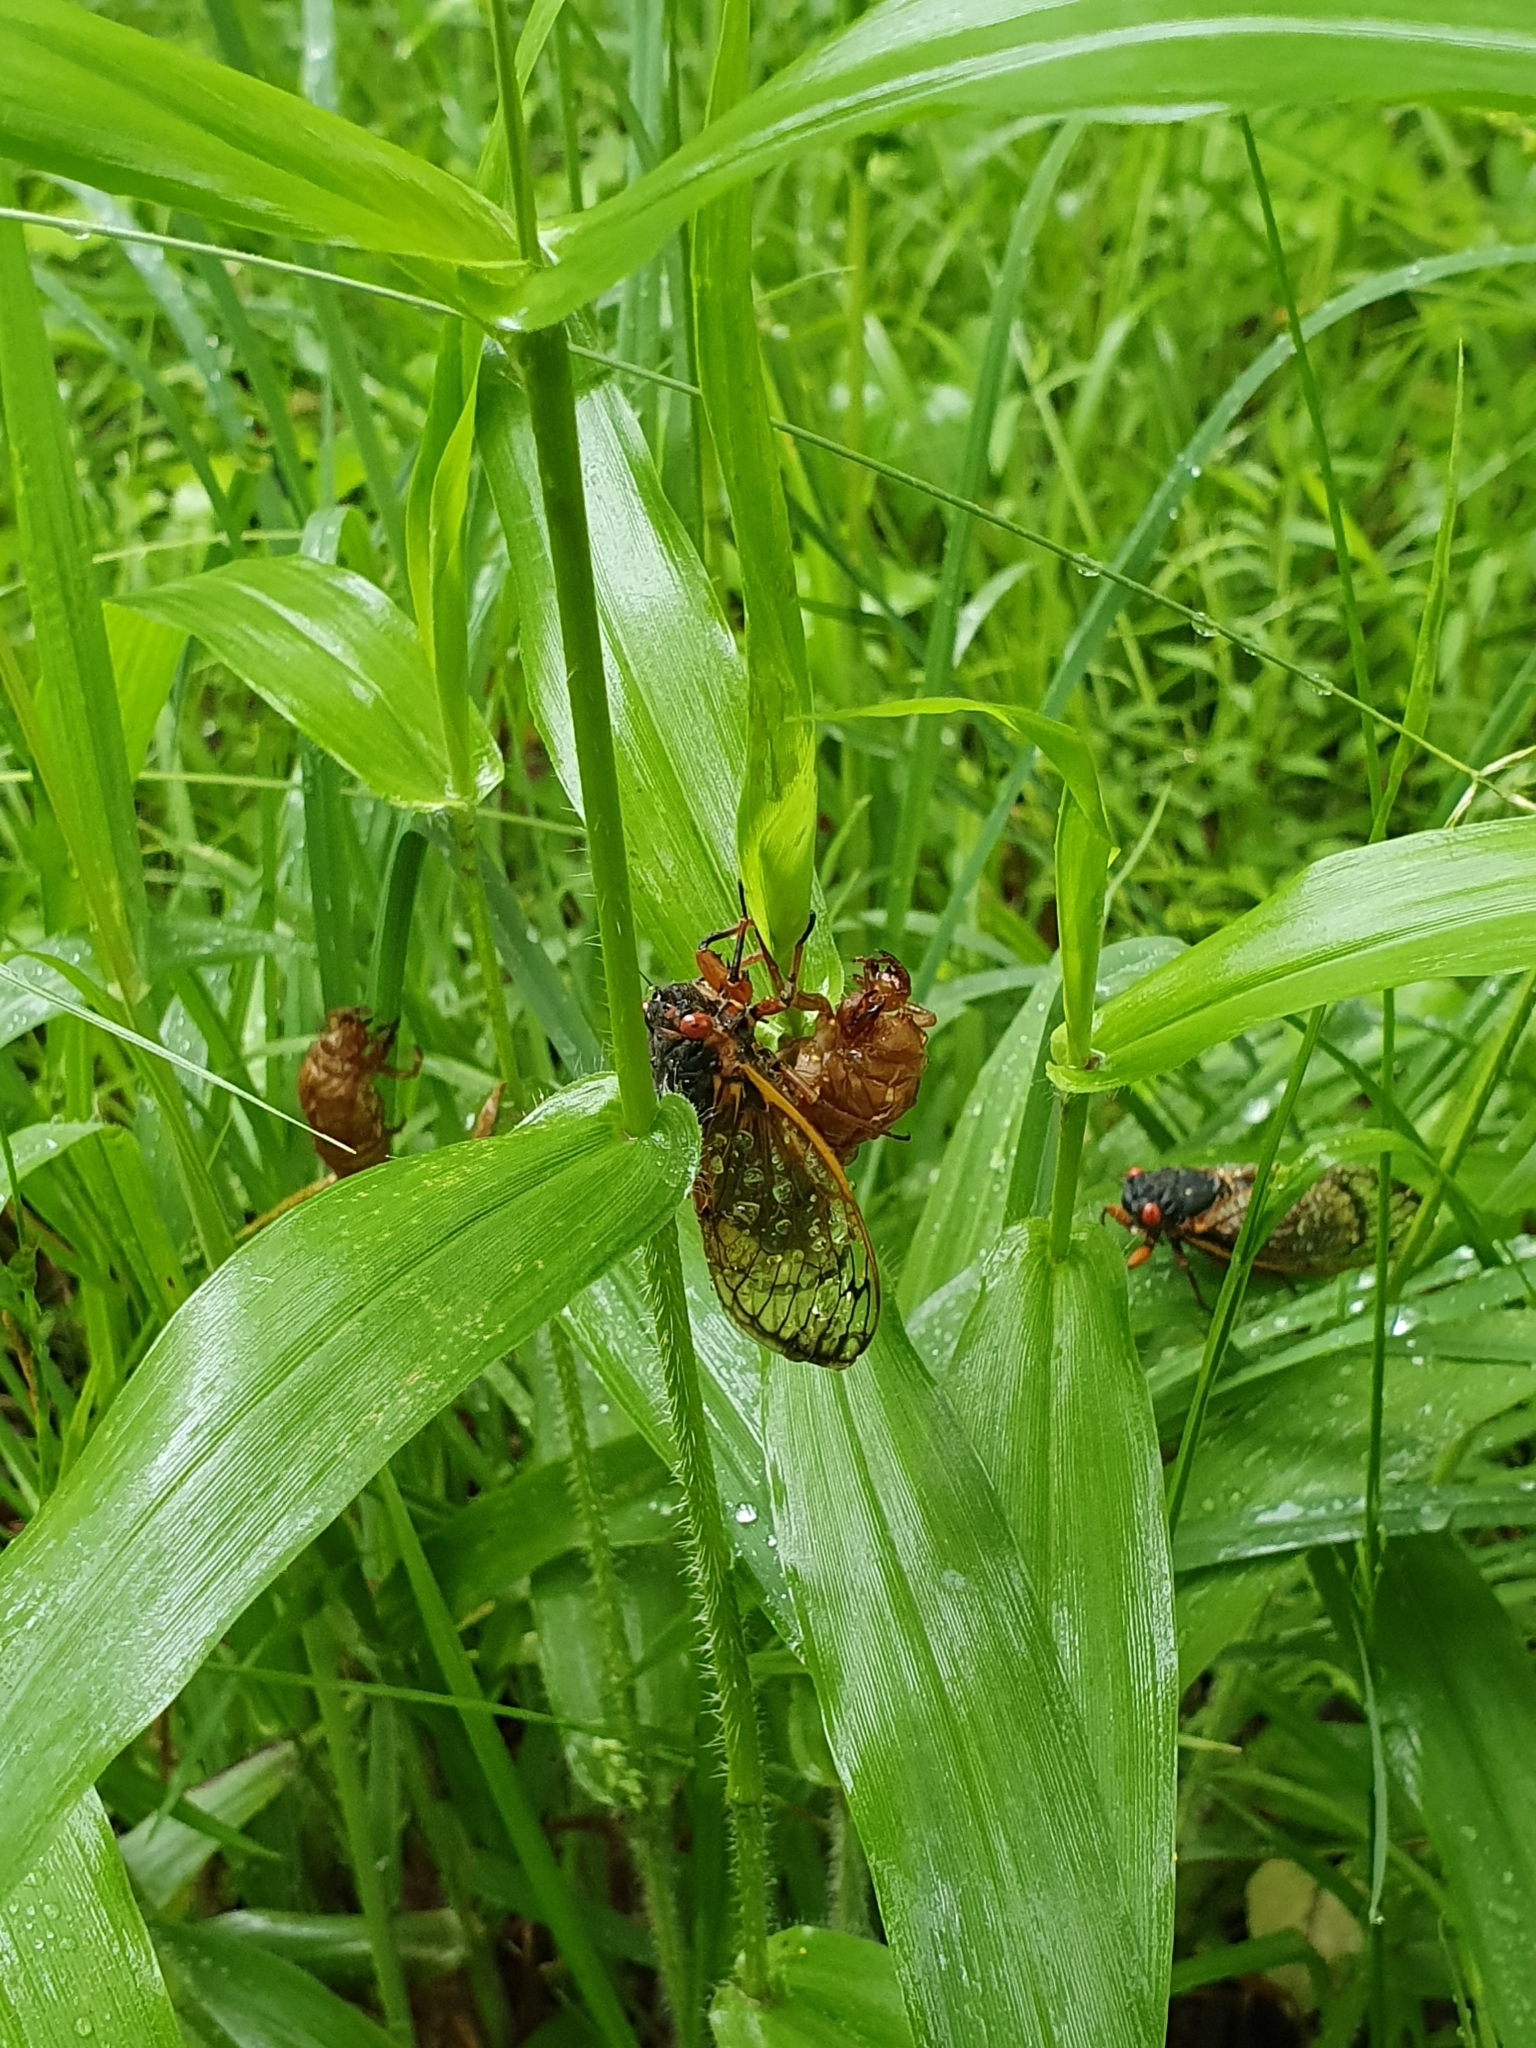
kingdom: Animalia
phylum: Arthropoda
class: Insecta
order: Hemiptera
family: Cicadidae
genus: Magicicada
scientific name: Magicicada septendecim
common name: Periodical cicada
